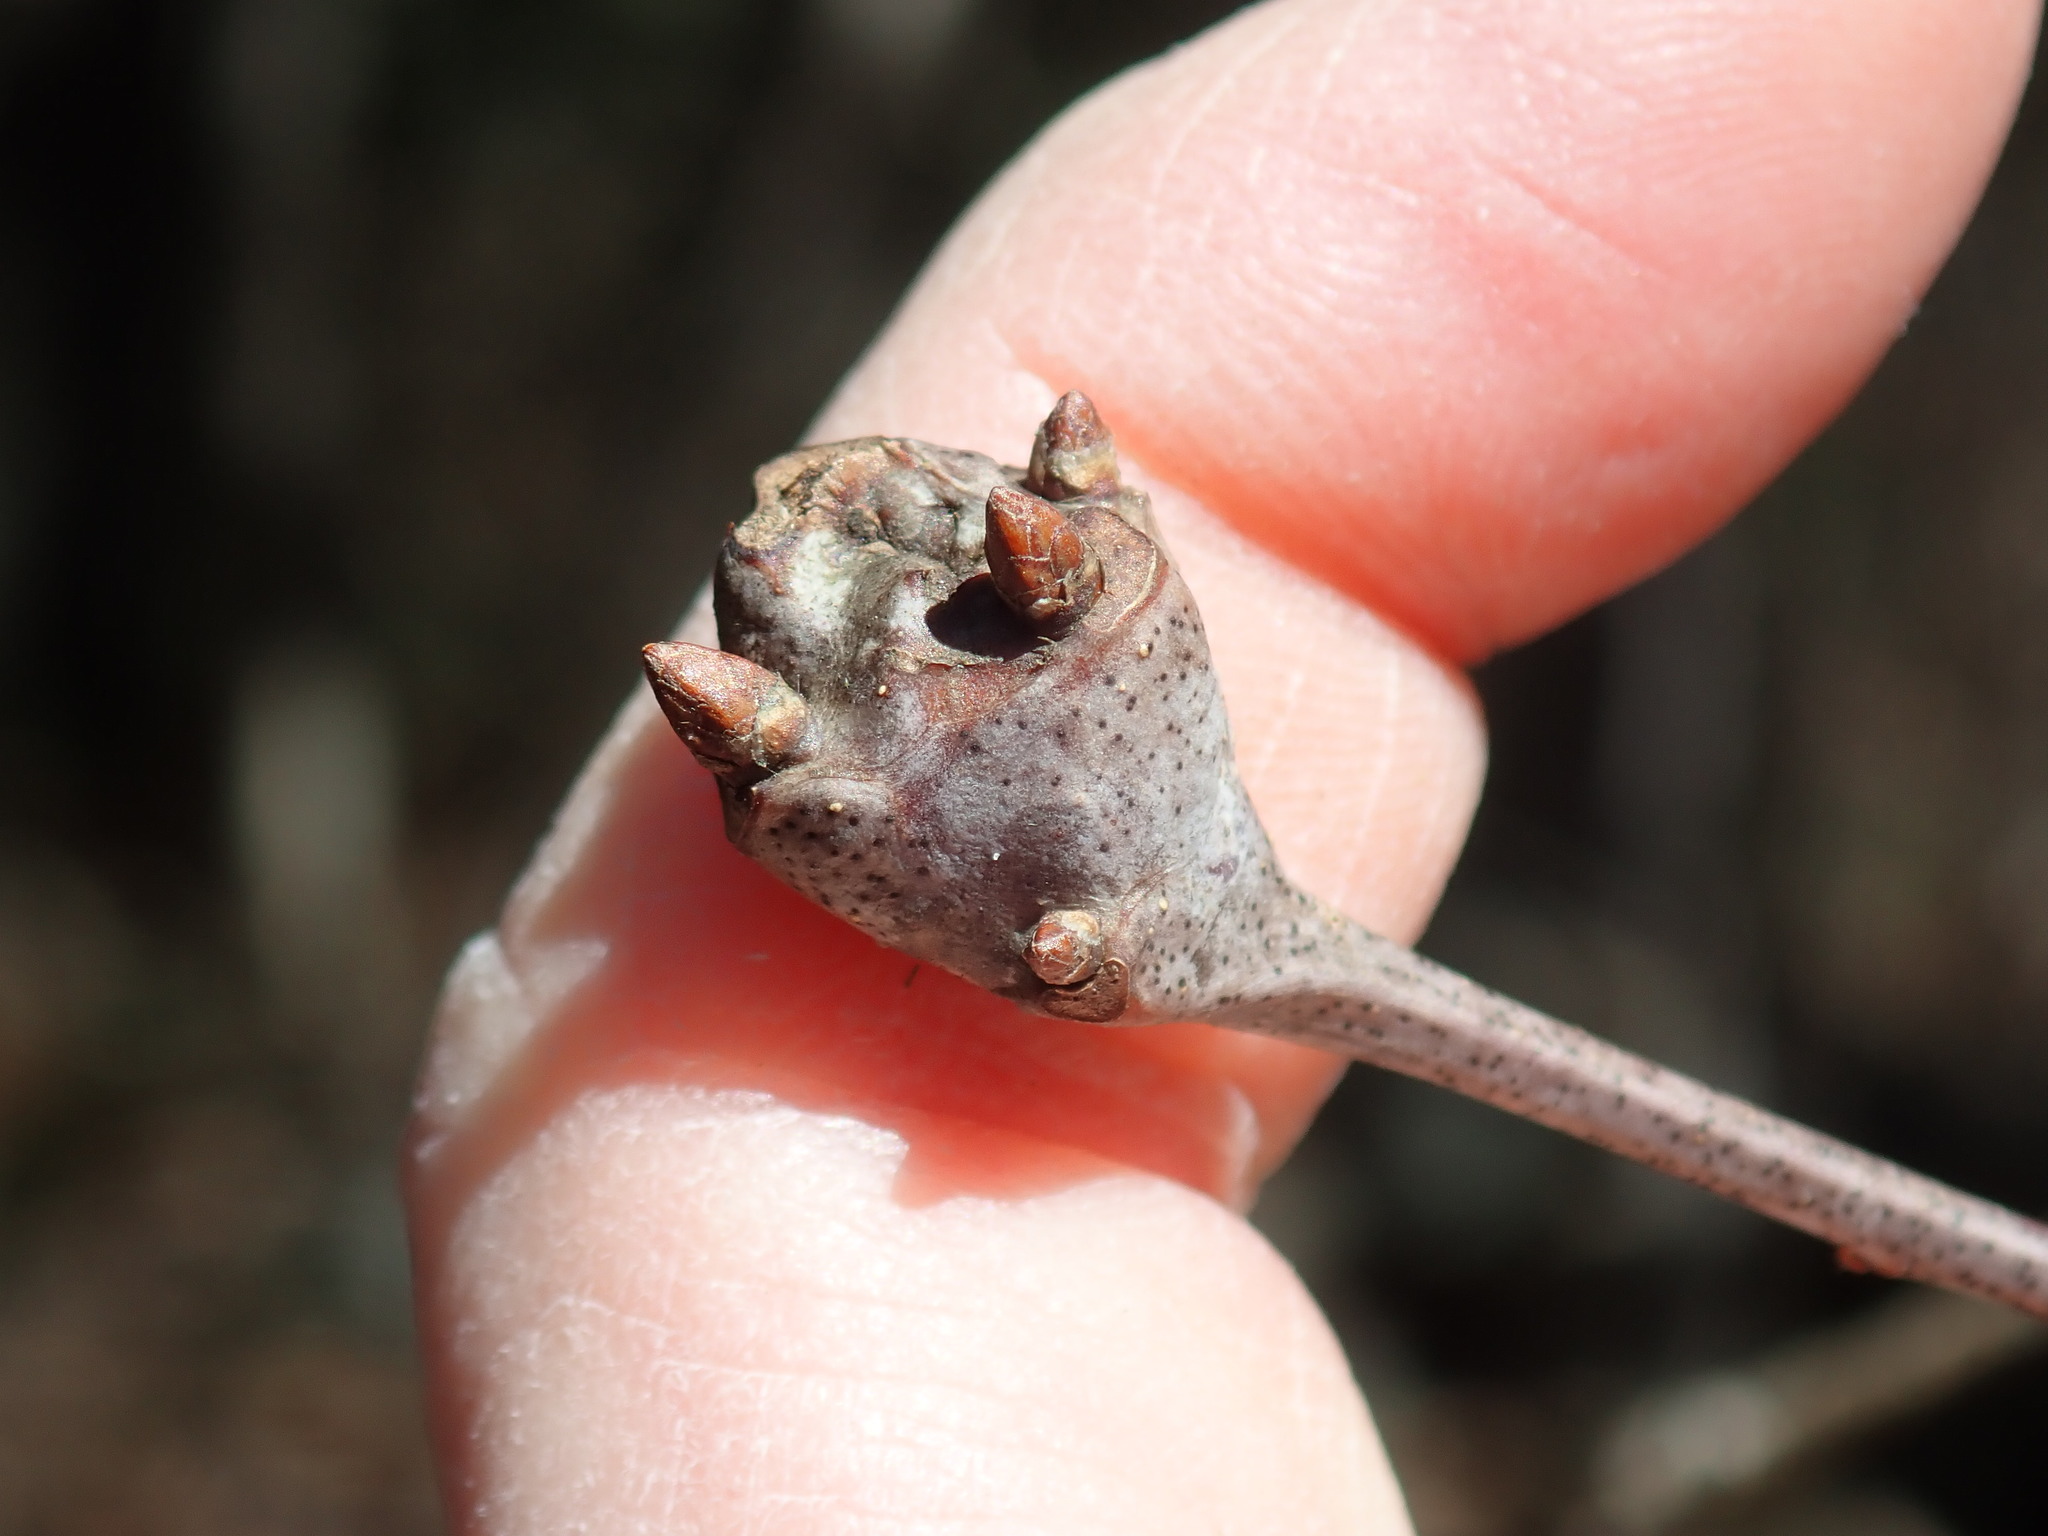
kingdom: Animalia
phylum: Arthropoda
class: Insecta
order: Hymenoptera
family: Cynipidae
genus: Callirhytis
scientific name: Callirhytis clavula
